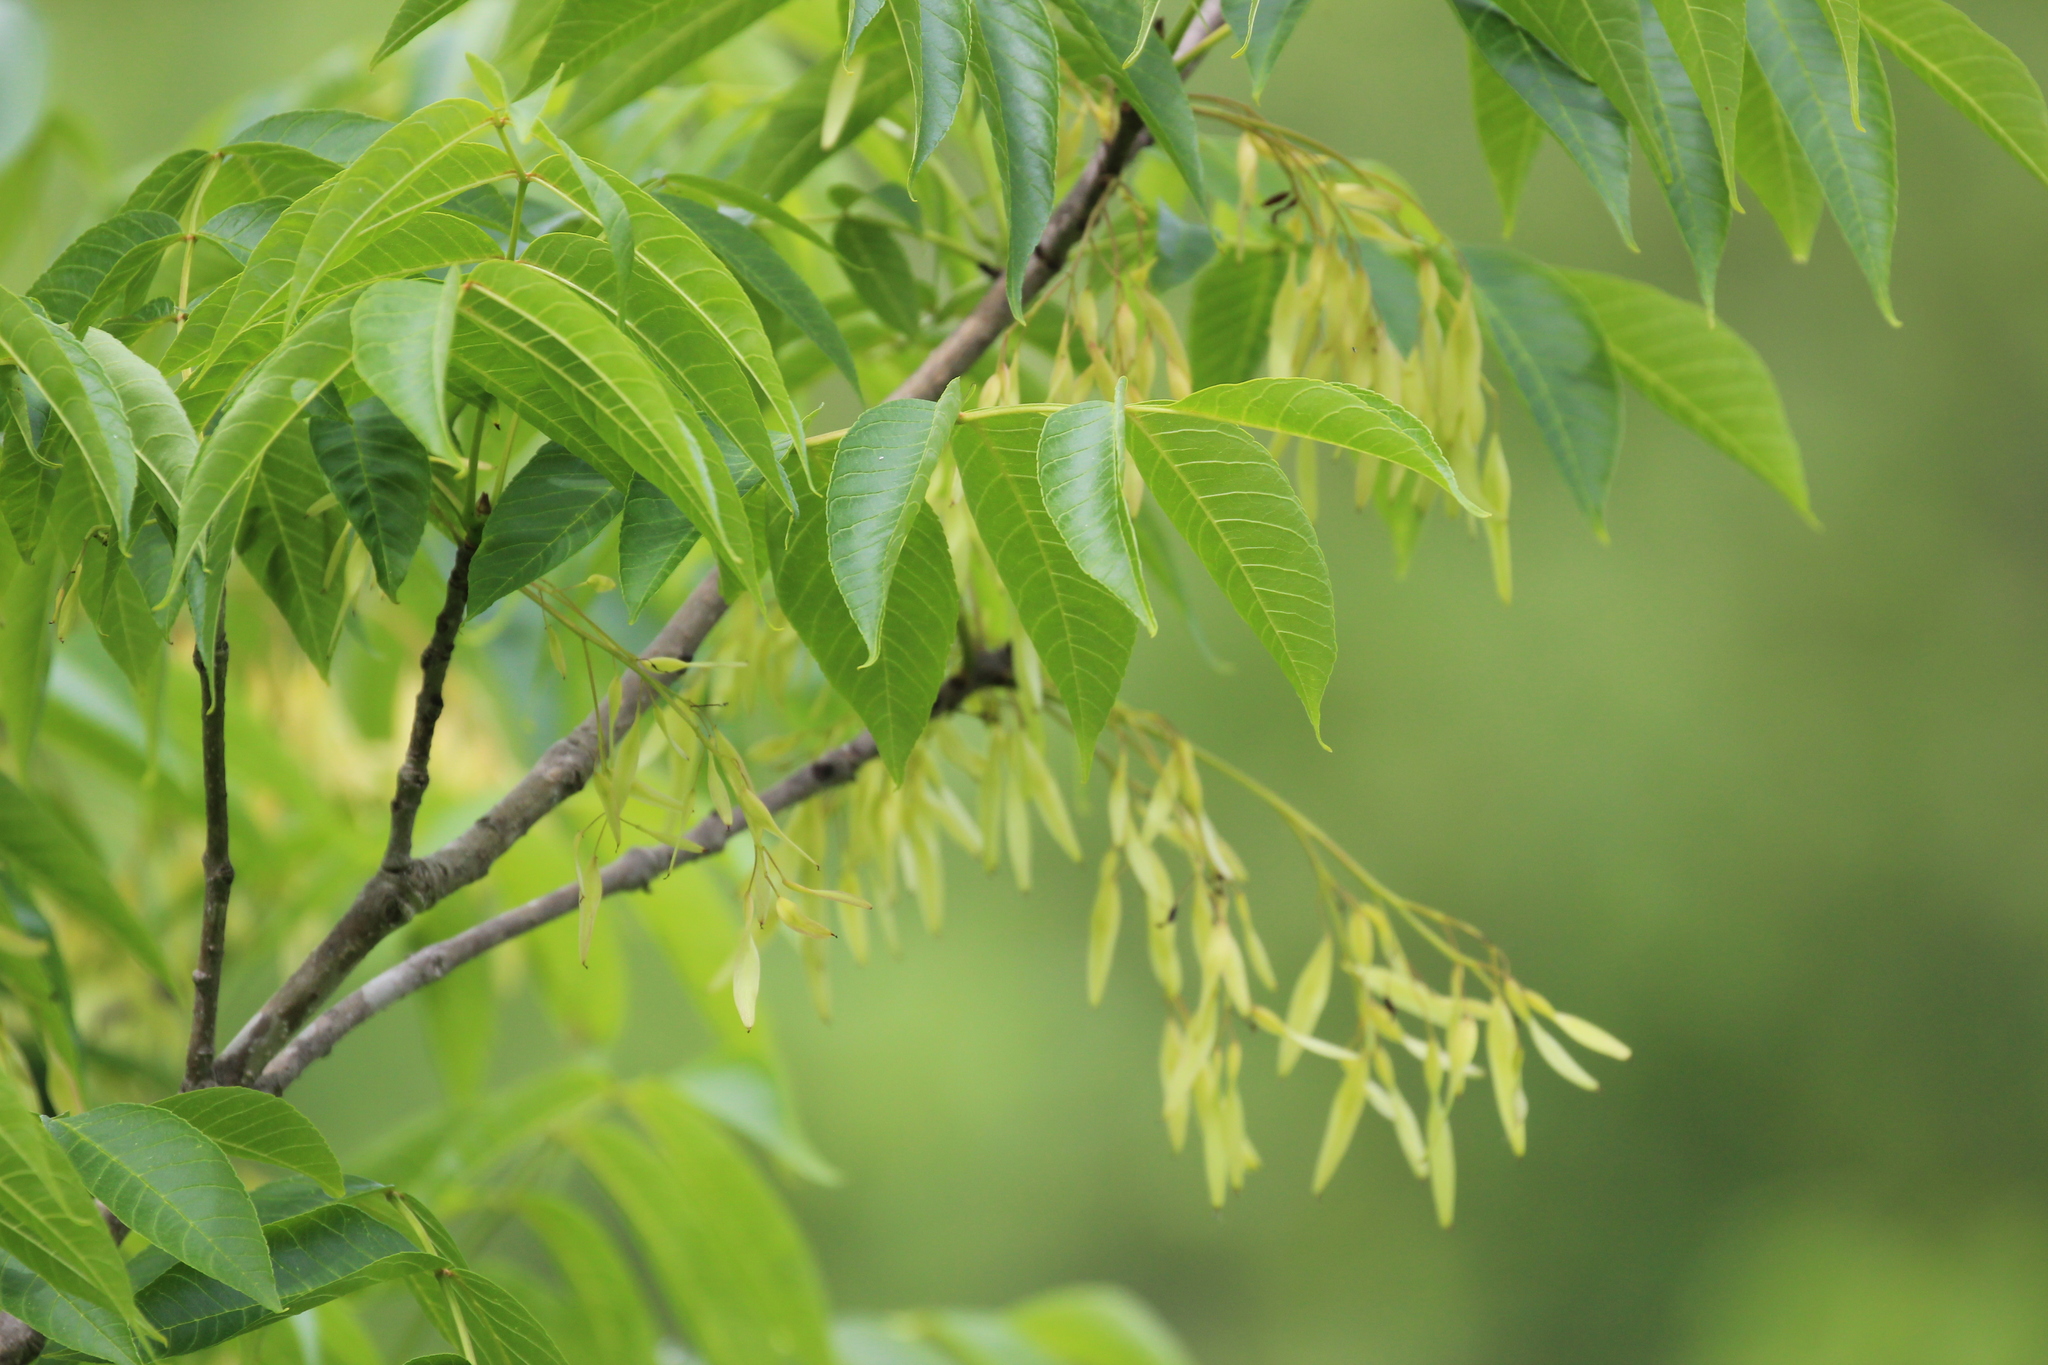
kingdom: Plantae
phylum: Tracheophyta
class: Magnoliopsida
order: Lamiales
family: Oleaceae
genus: Fraxinus
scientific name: Fraxinus nigra
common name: Black ash
